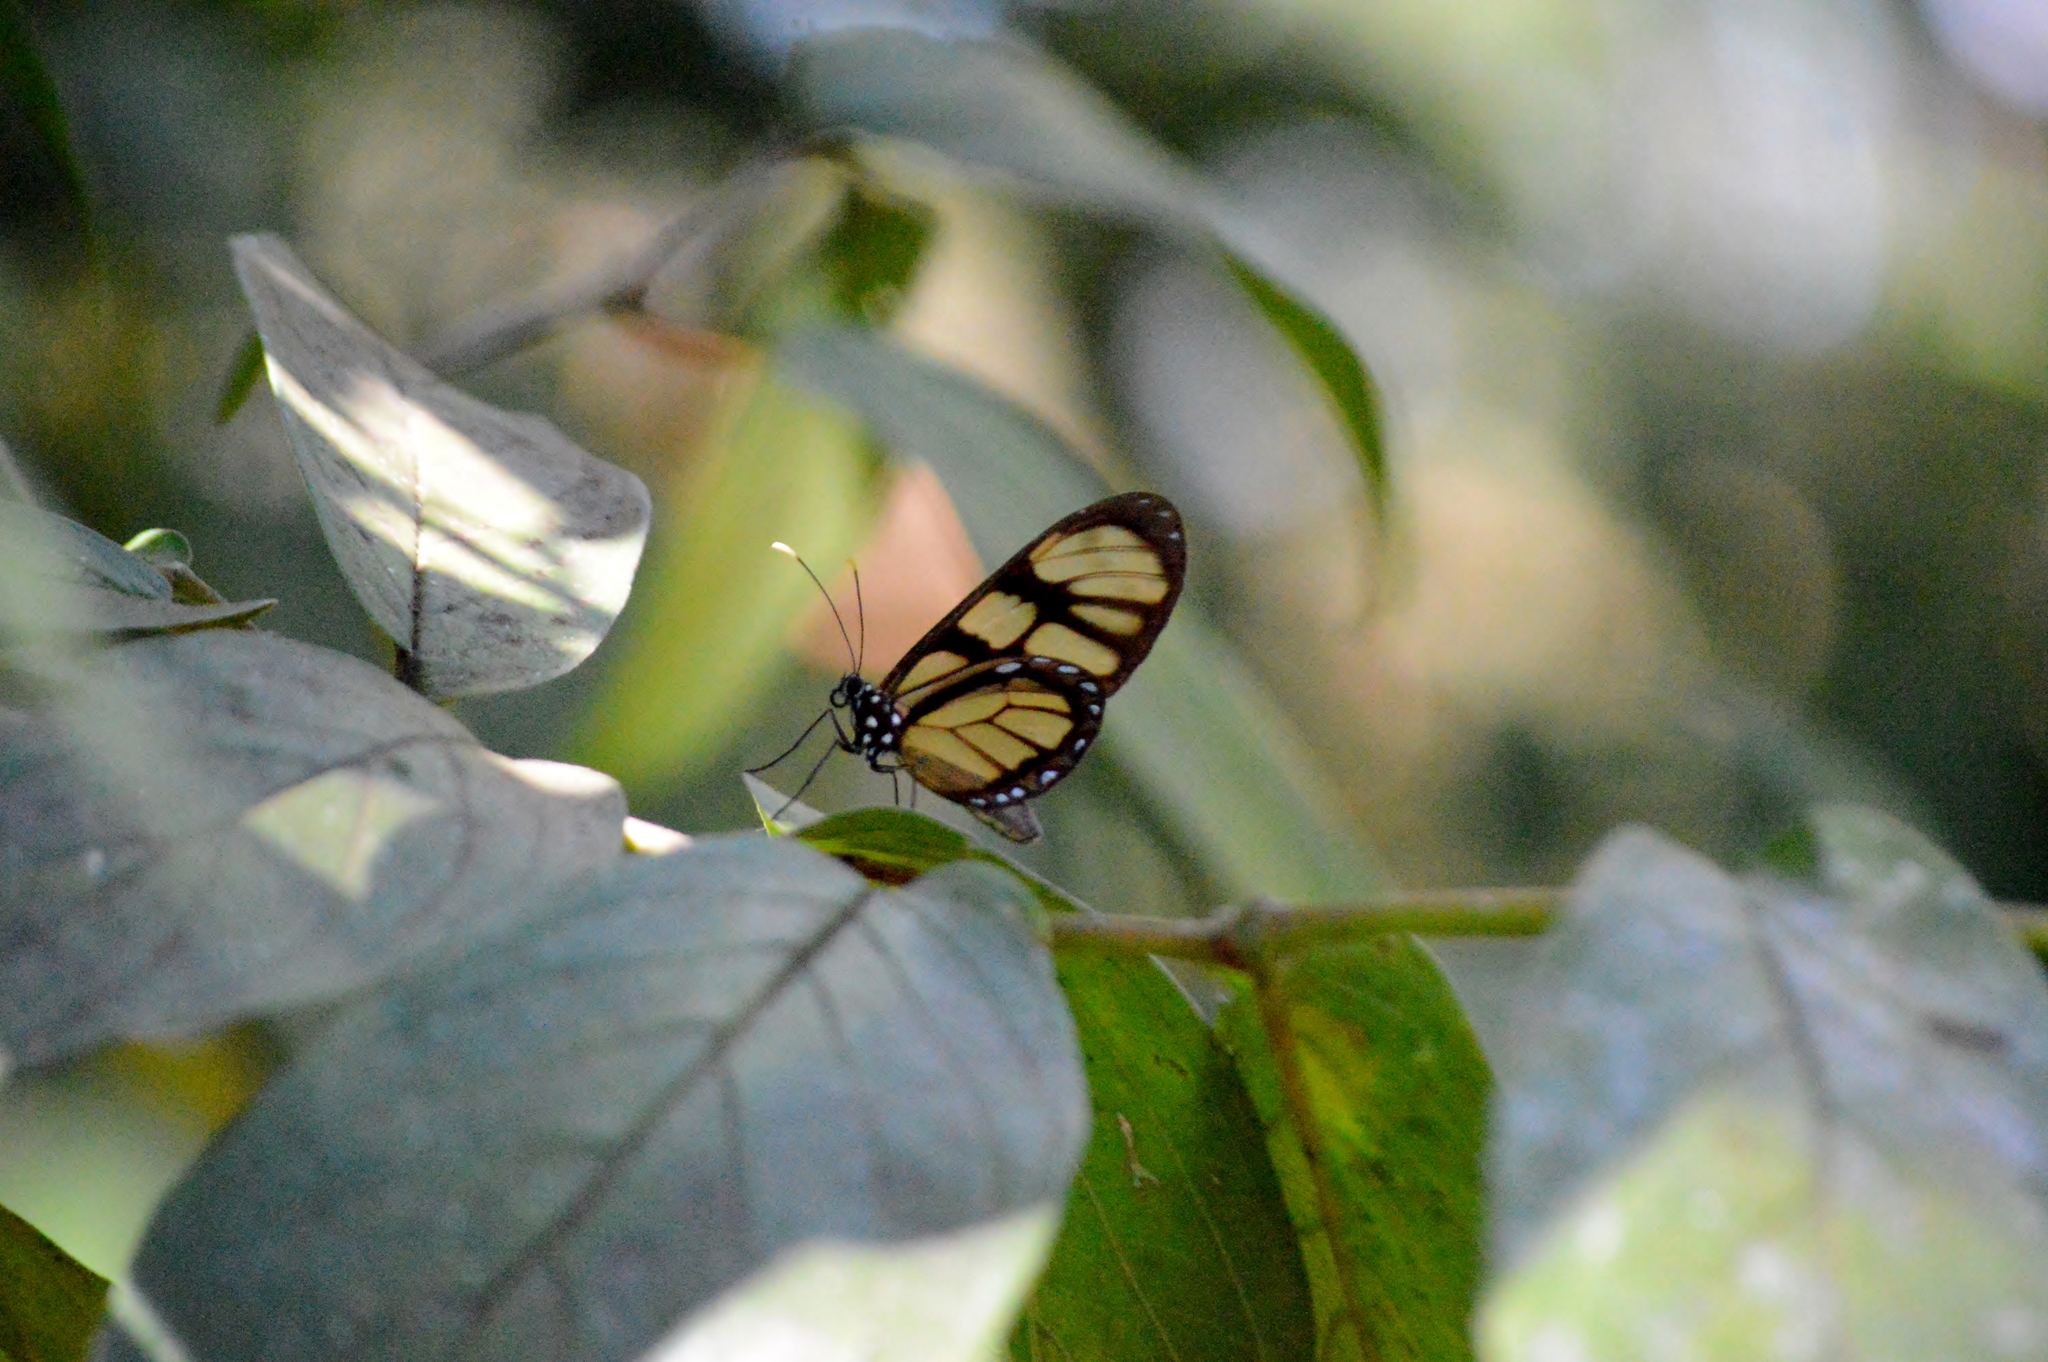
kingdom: Animalia
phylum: Arthropoda
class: Insecta
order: Lepidoptera
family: Nymphalidae
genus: Dircenna
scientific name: Dircenna dero
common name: Dero clearwing
